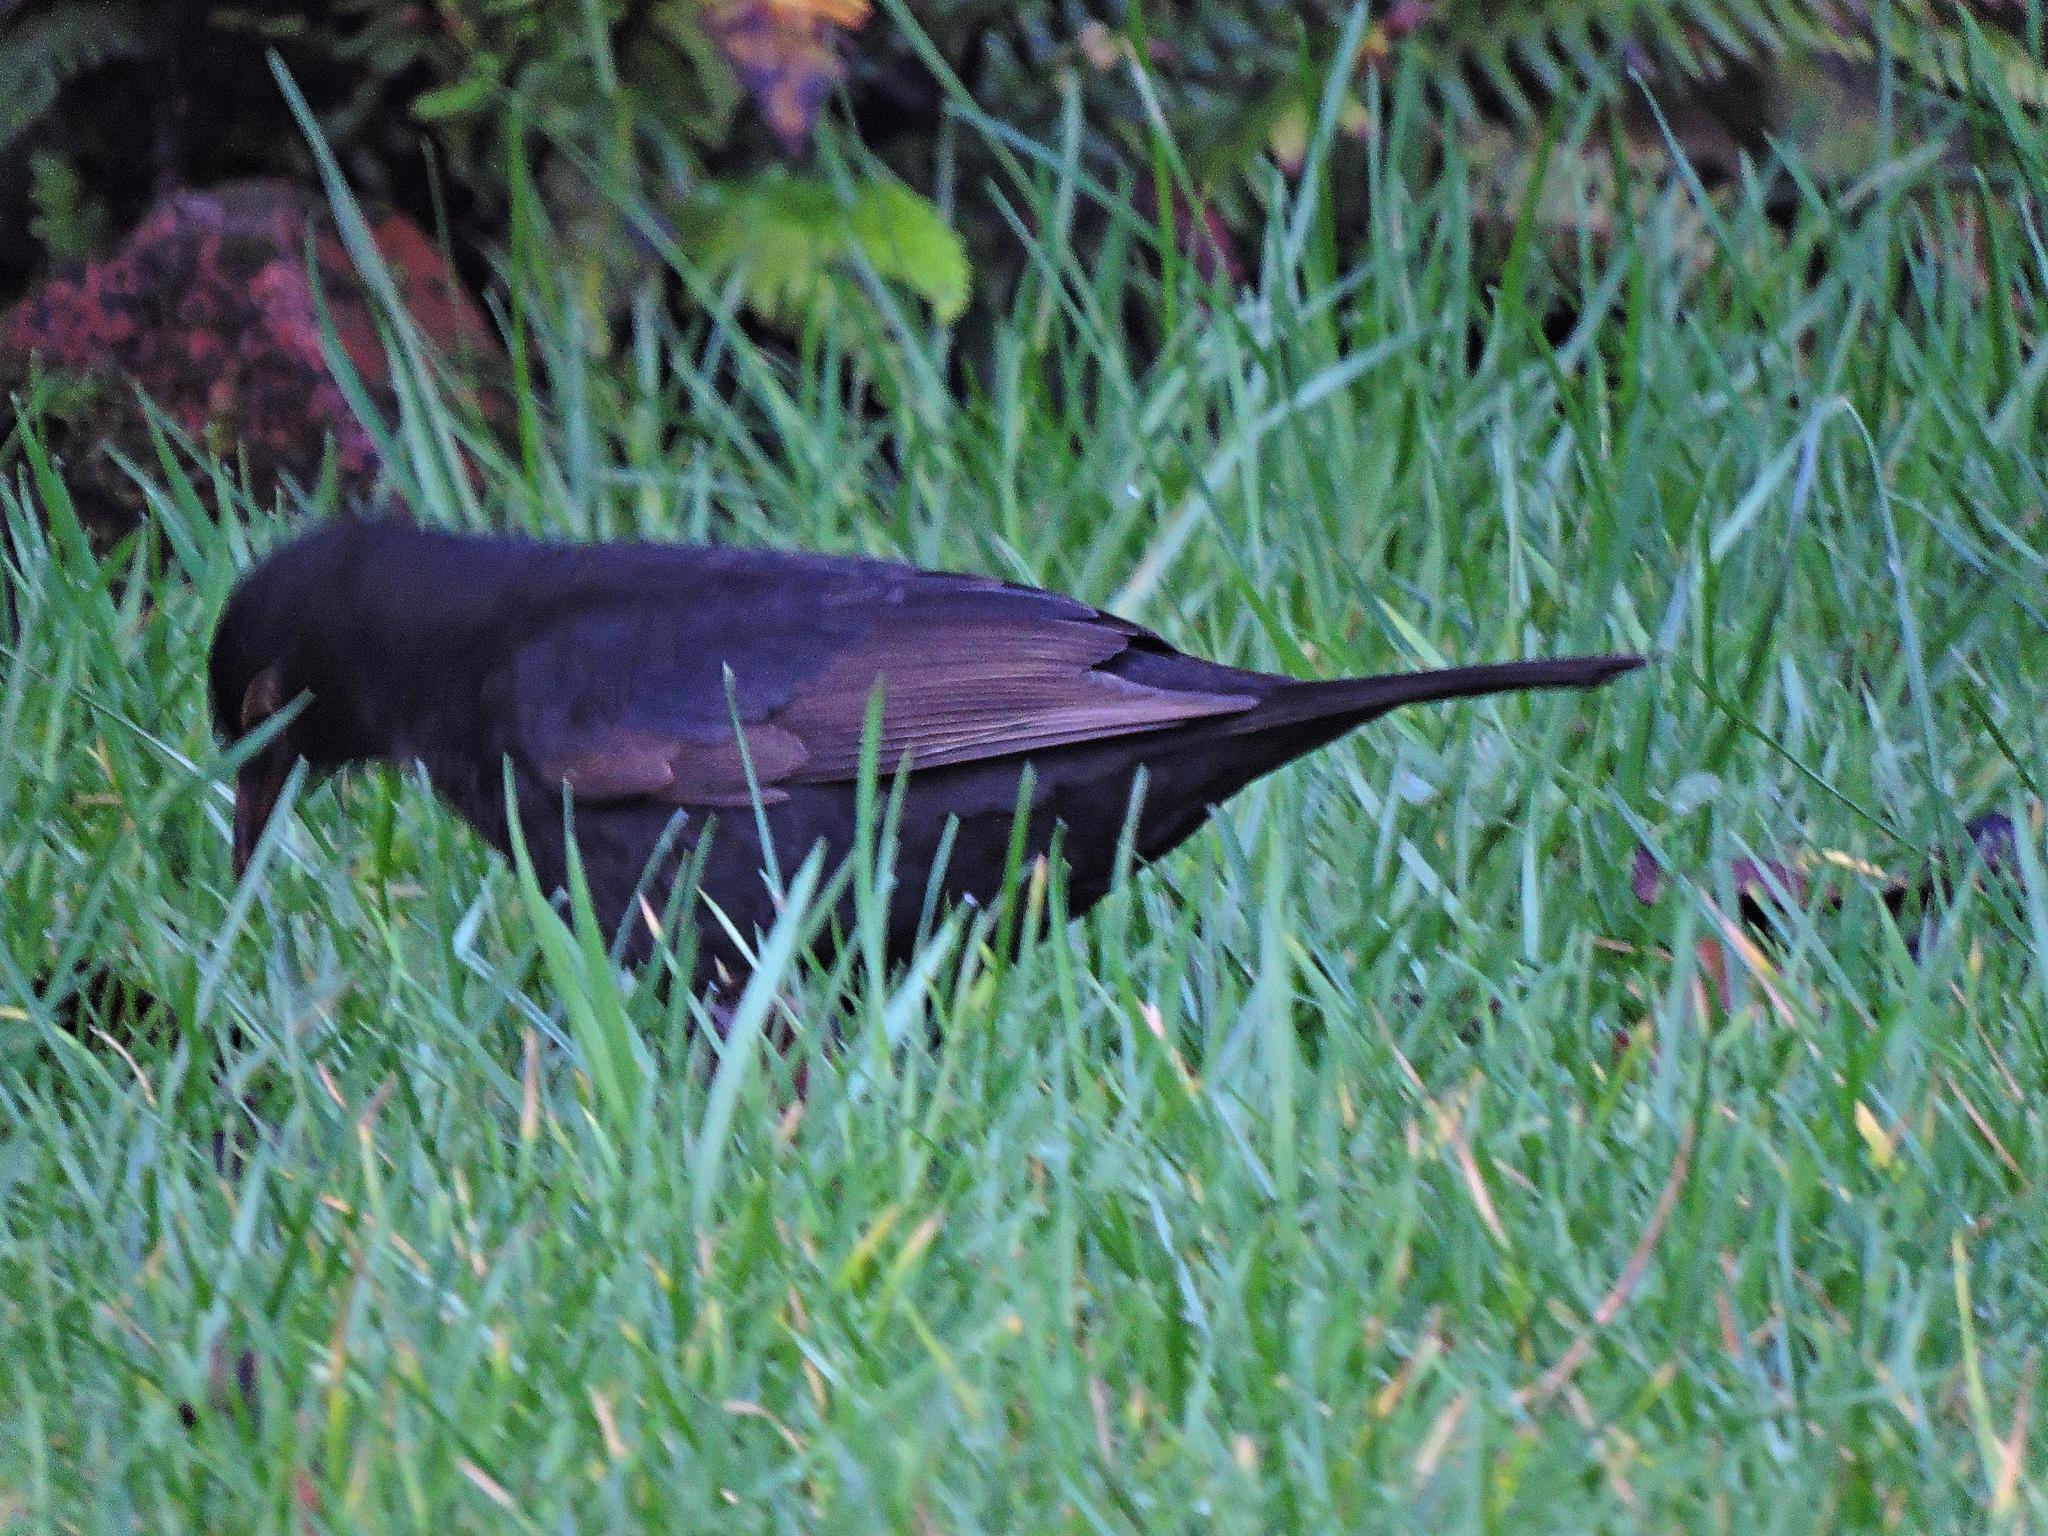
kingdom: Animalia
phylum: Chordata
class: Aves
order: Passeriformes
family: Turdidae
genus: Turdus
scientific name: Turdus merula
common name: Common blackbird
